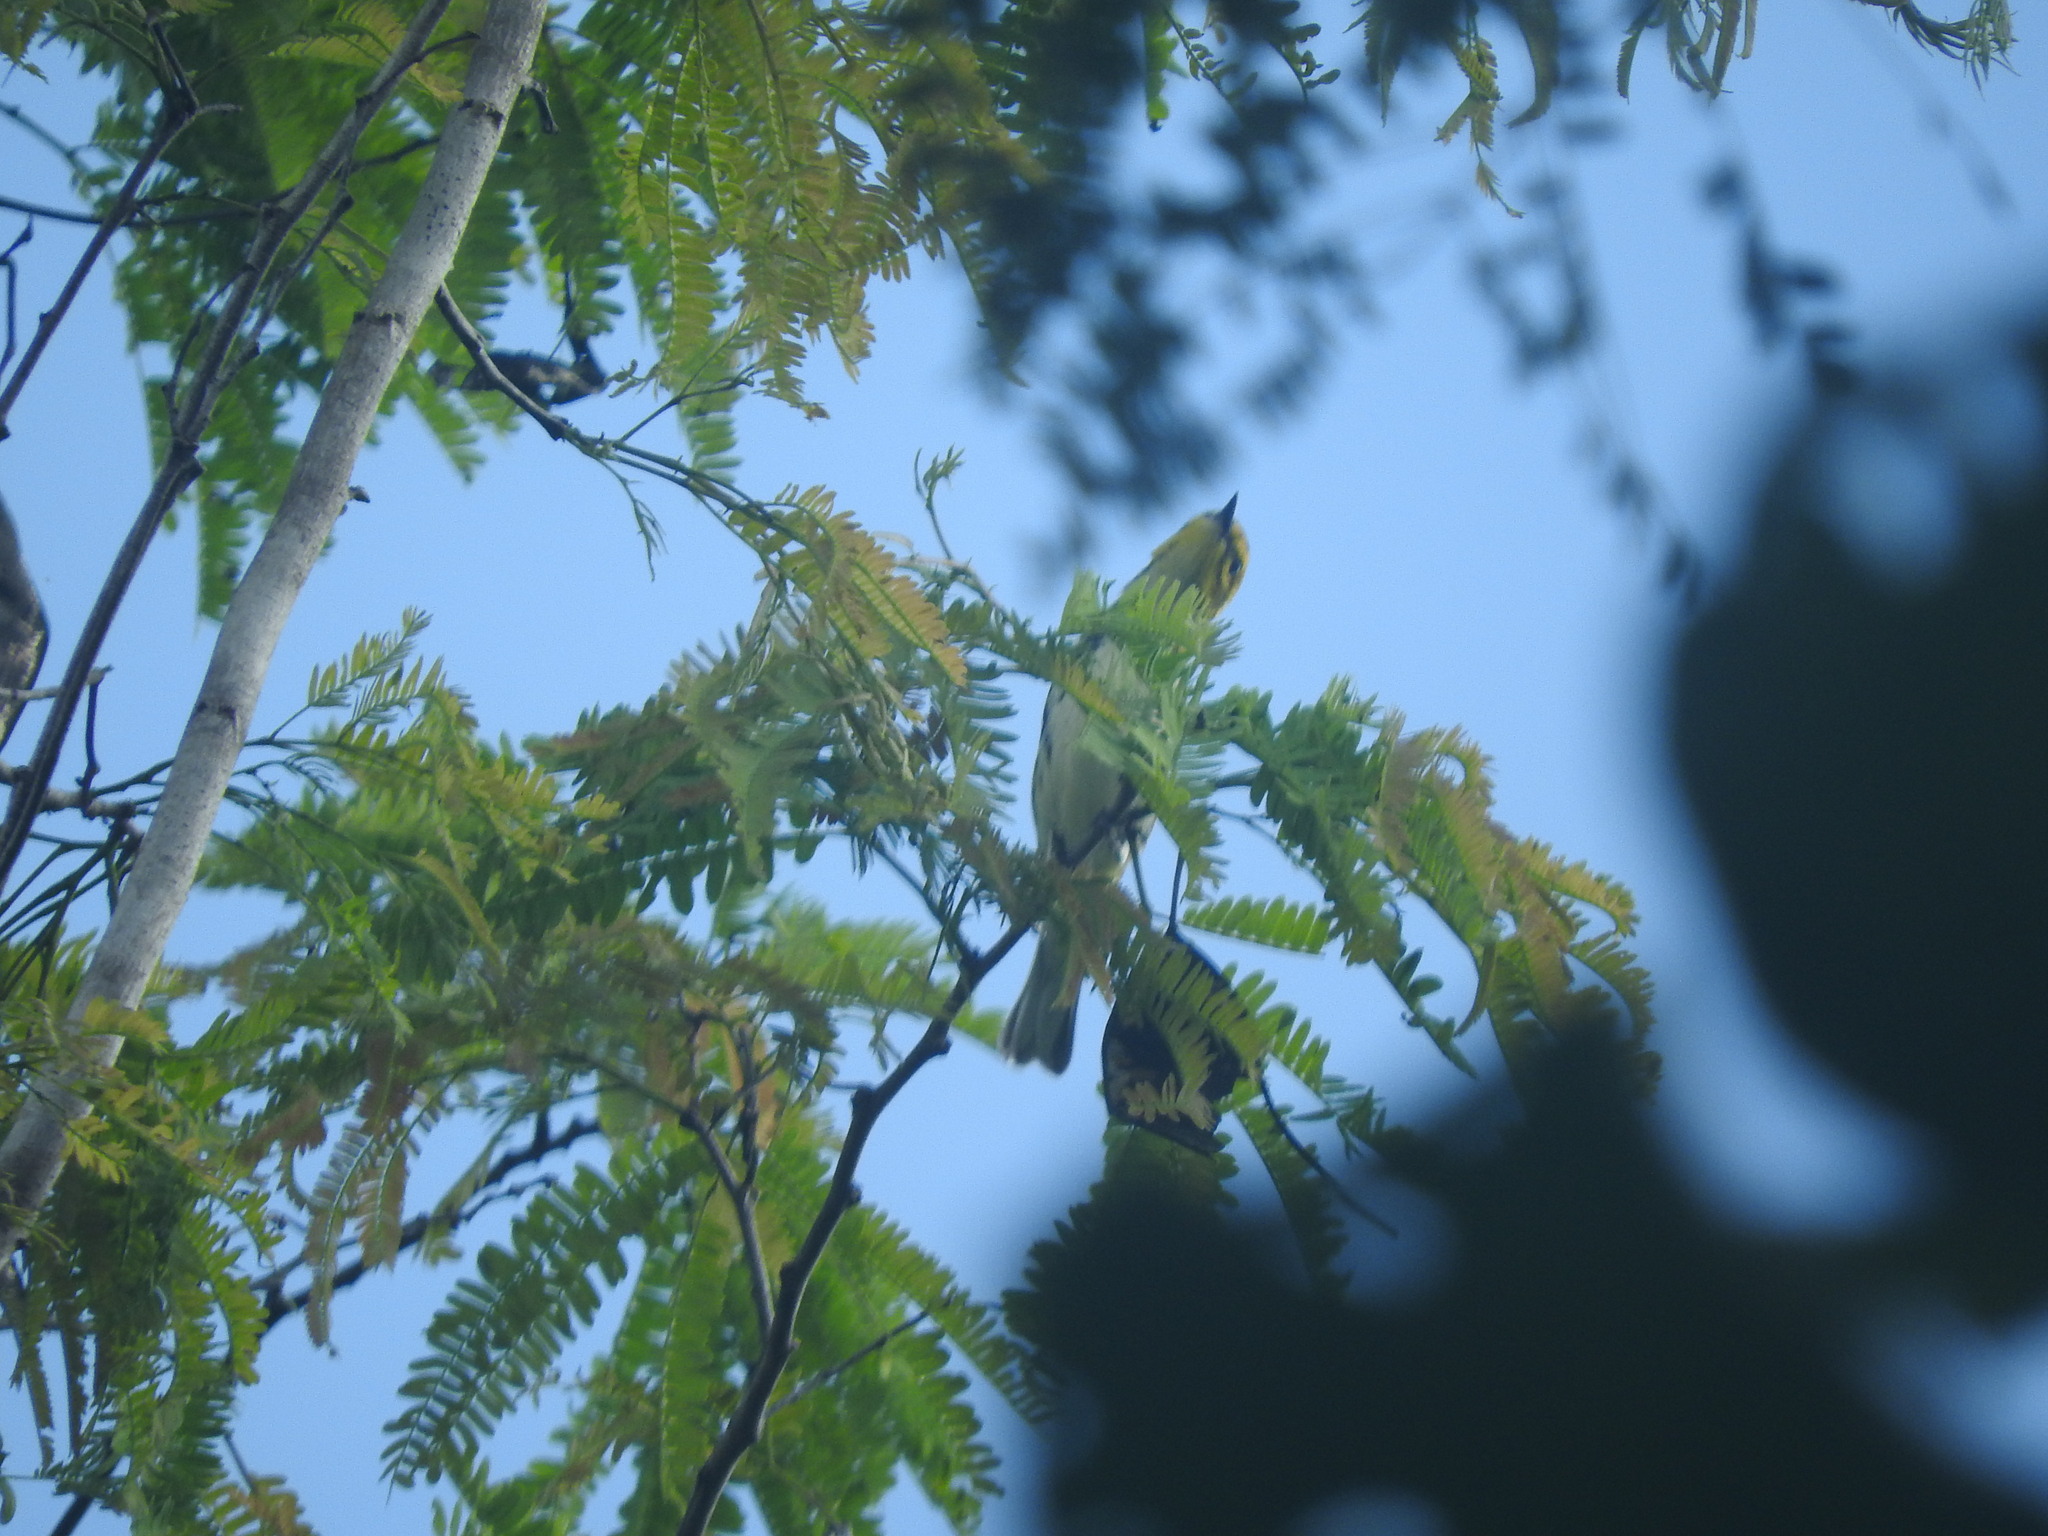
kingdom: Animalia
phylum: Chordata
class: Aves
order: Passeriformes
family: Parulidae
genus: Setophaga
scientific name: Setophaga virens
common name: Black-throated green warbler
